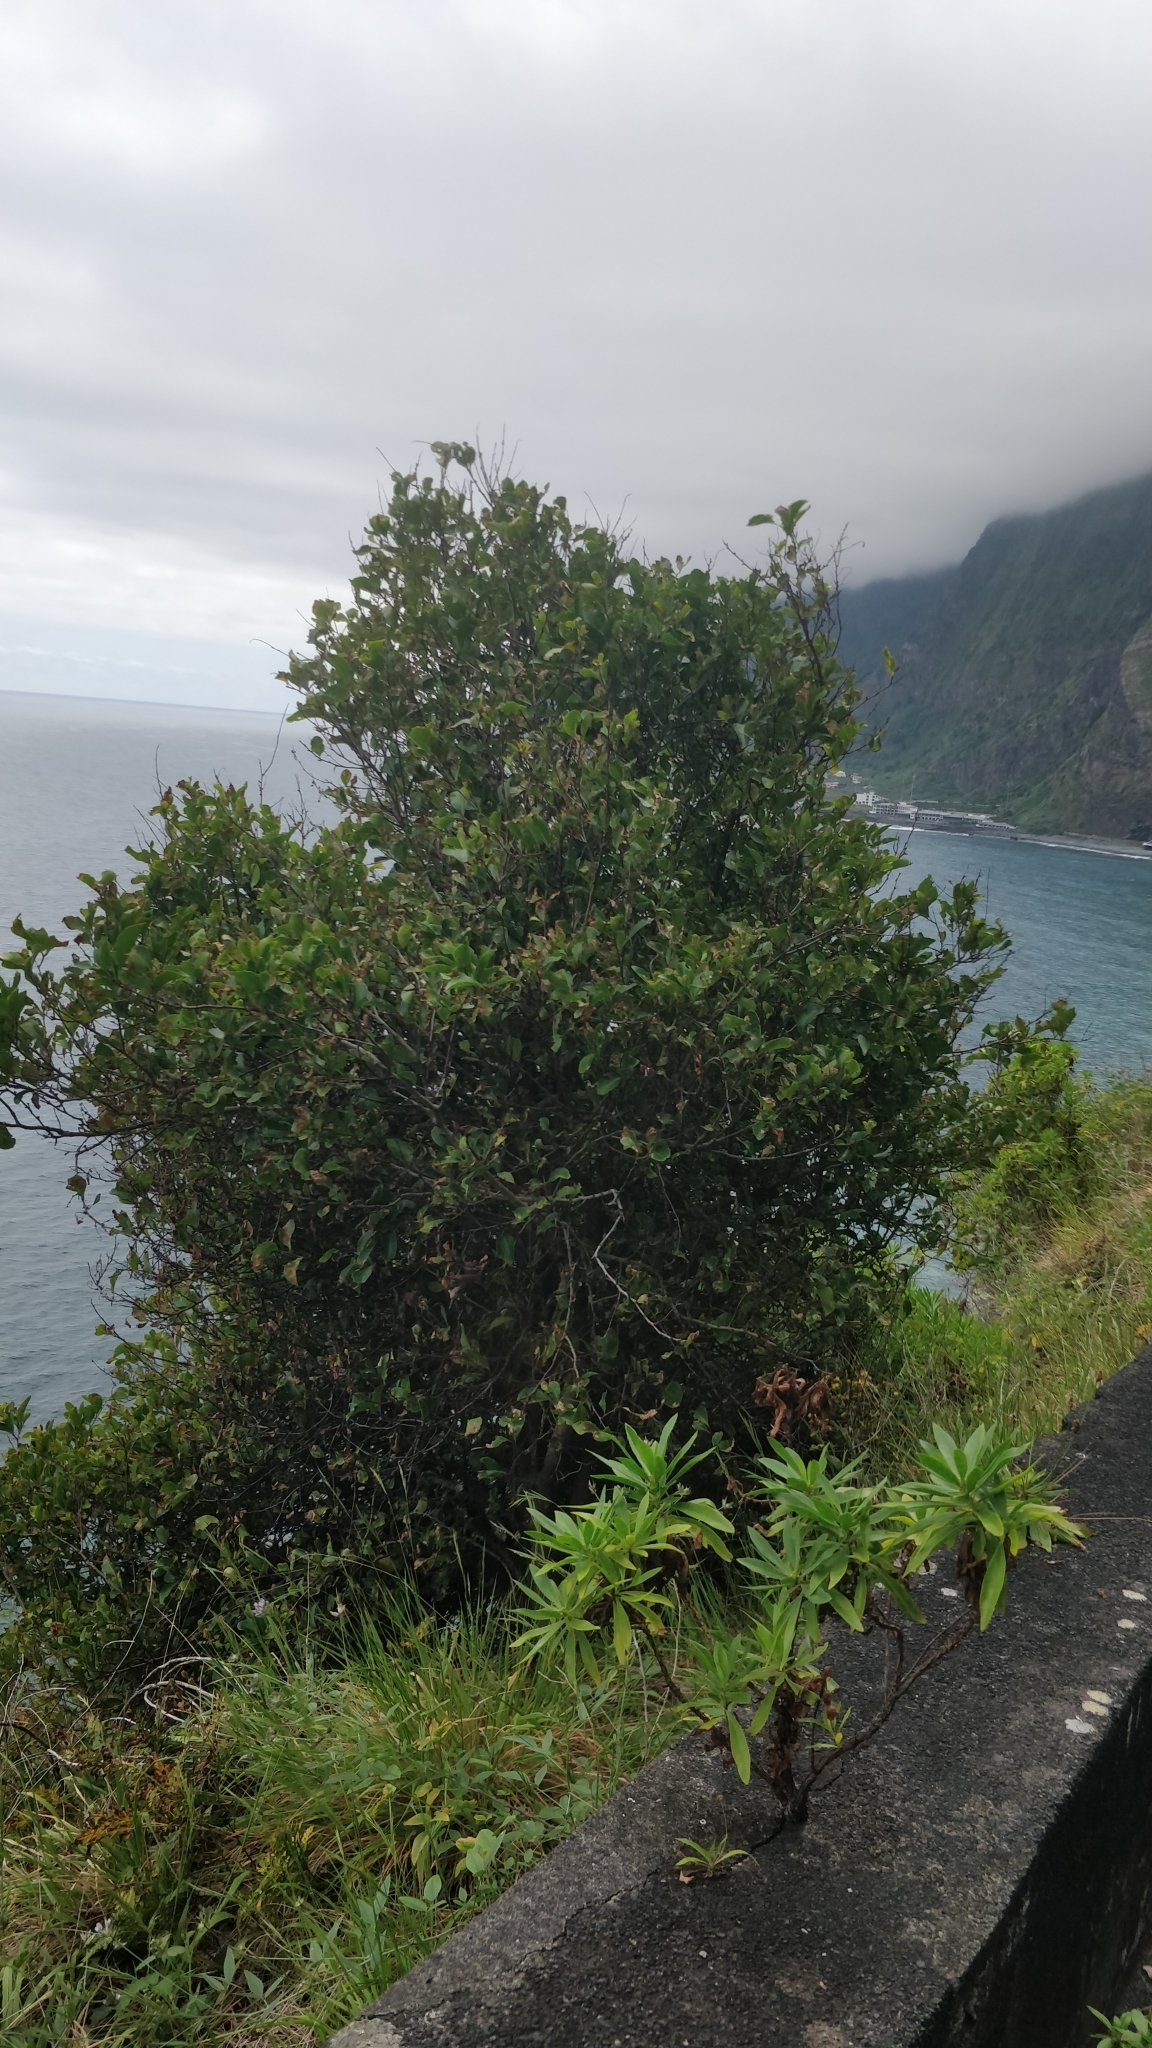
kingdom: Plantae
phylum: Tracheophyta
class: Magnoliopsida
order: Celastrales
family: Celastraceae
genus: Gymnosporia
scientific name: Gymnosporia dryandri
